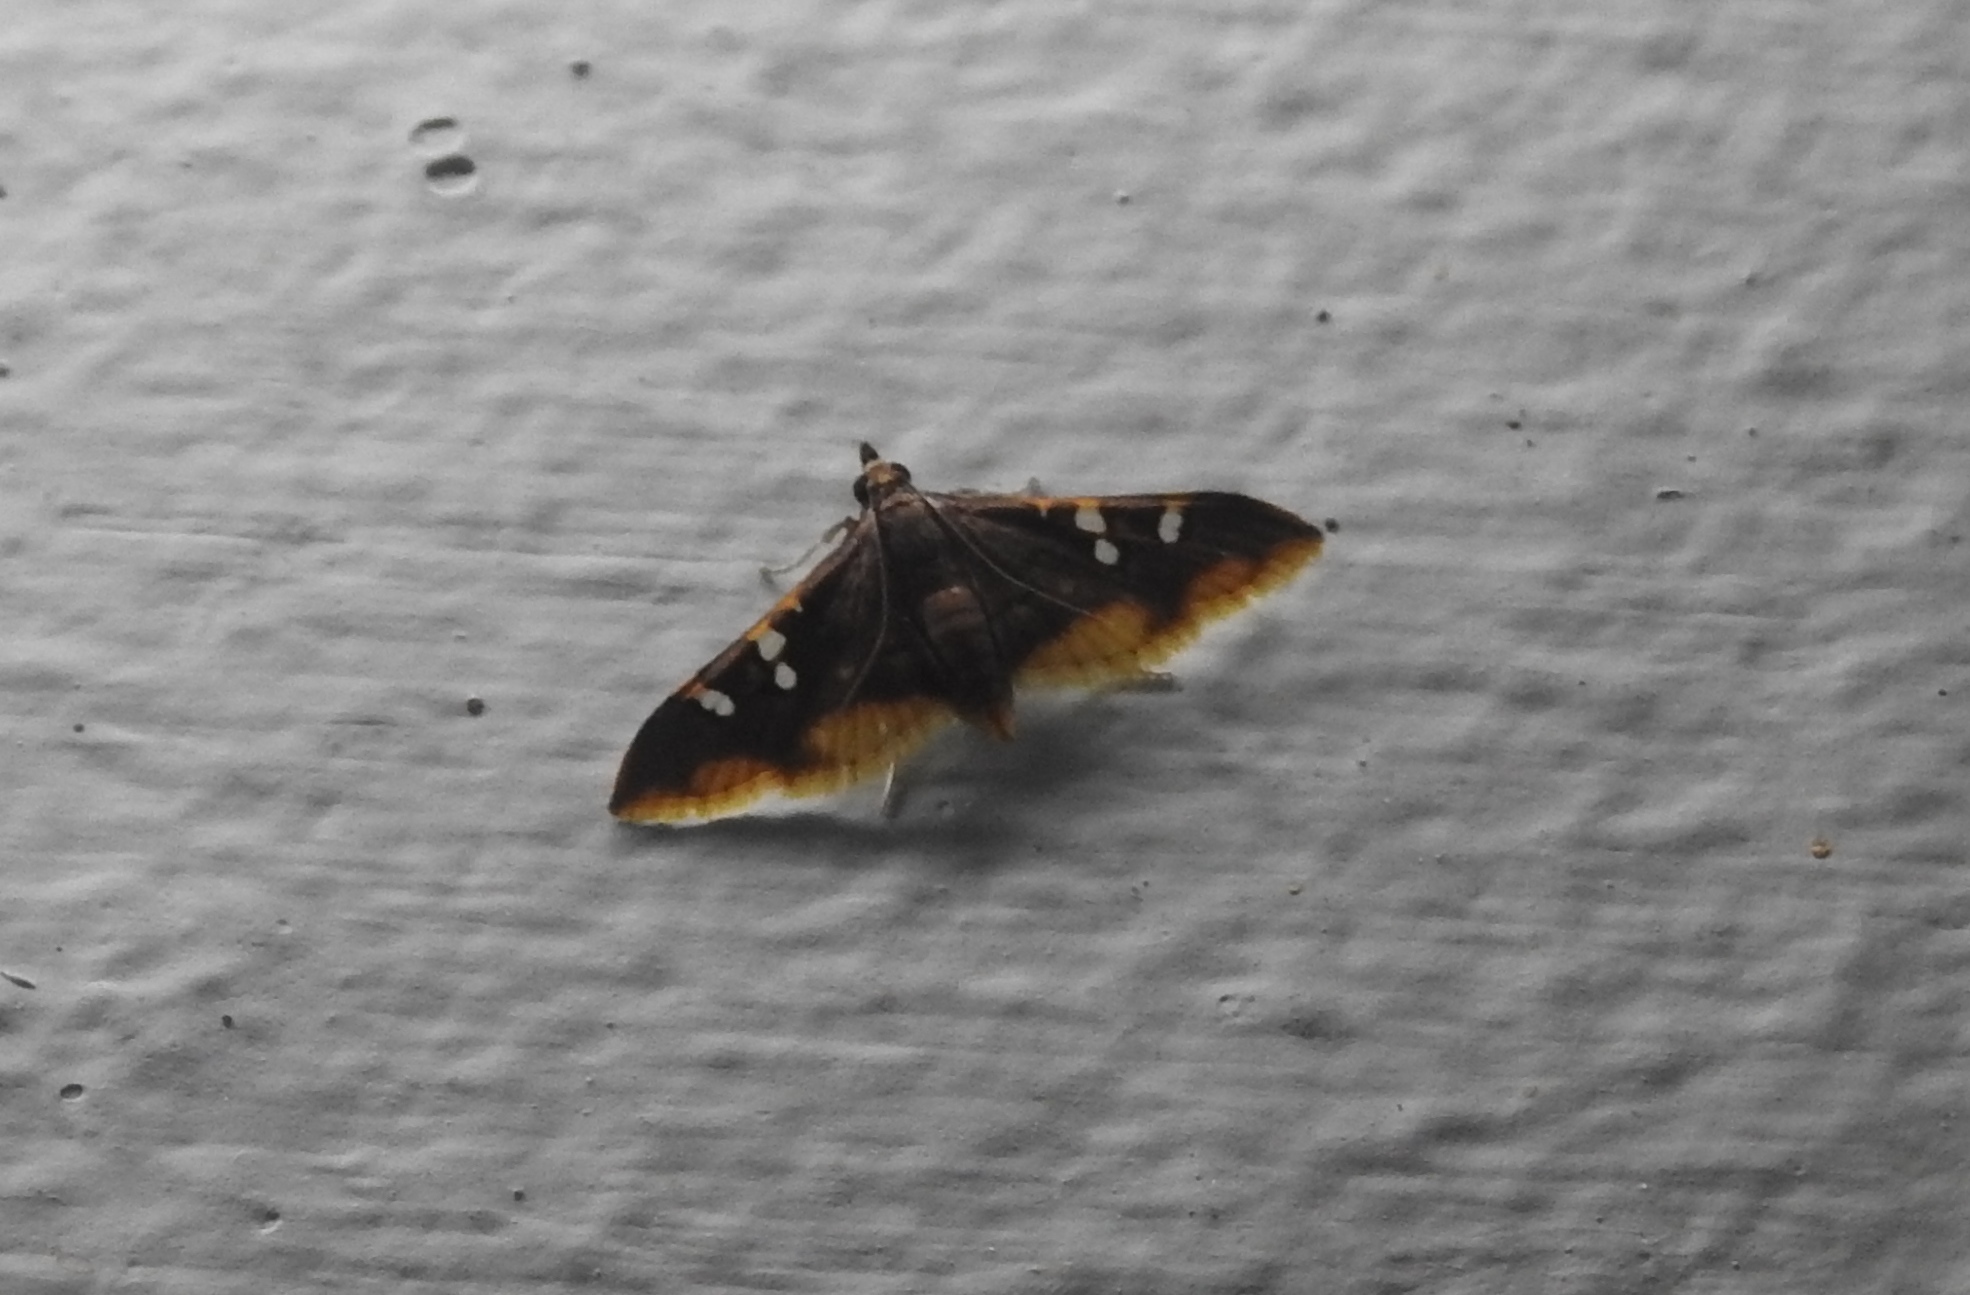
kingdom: Animalia
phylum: Arthropoda
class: Insecta
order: Lepidoptera
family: Crambidae
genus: Prophantis
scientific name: Prophantis adusta
